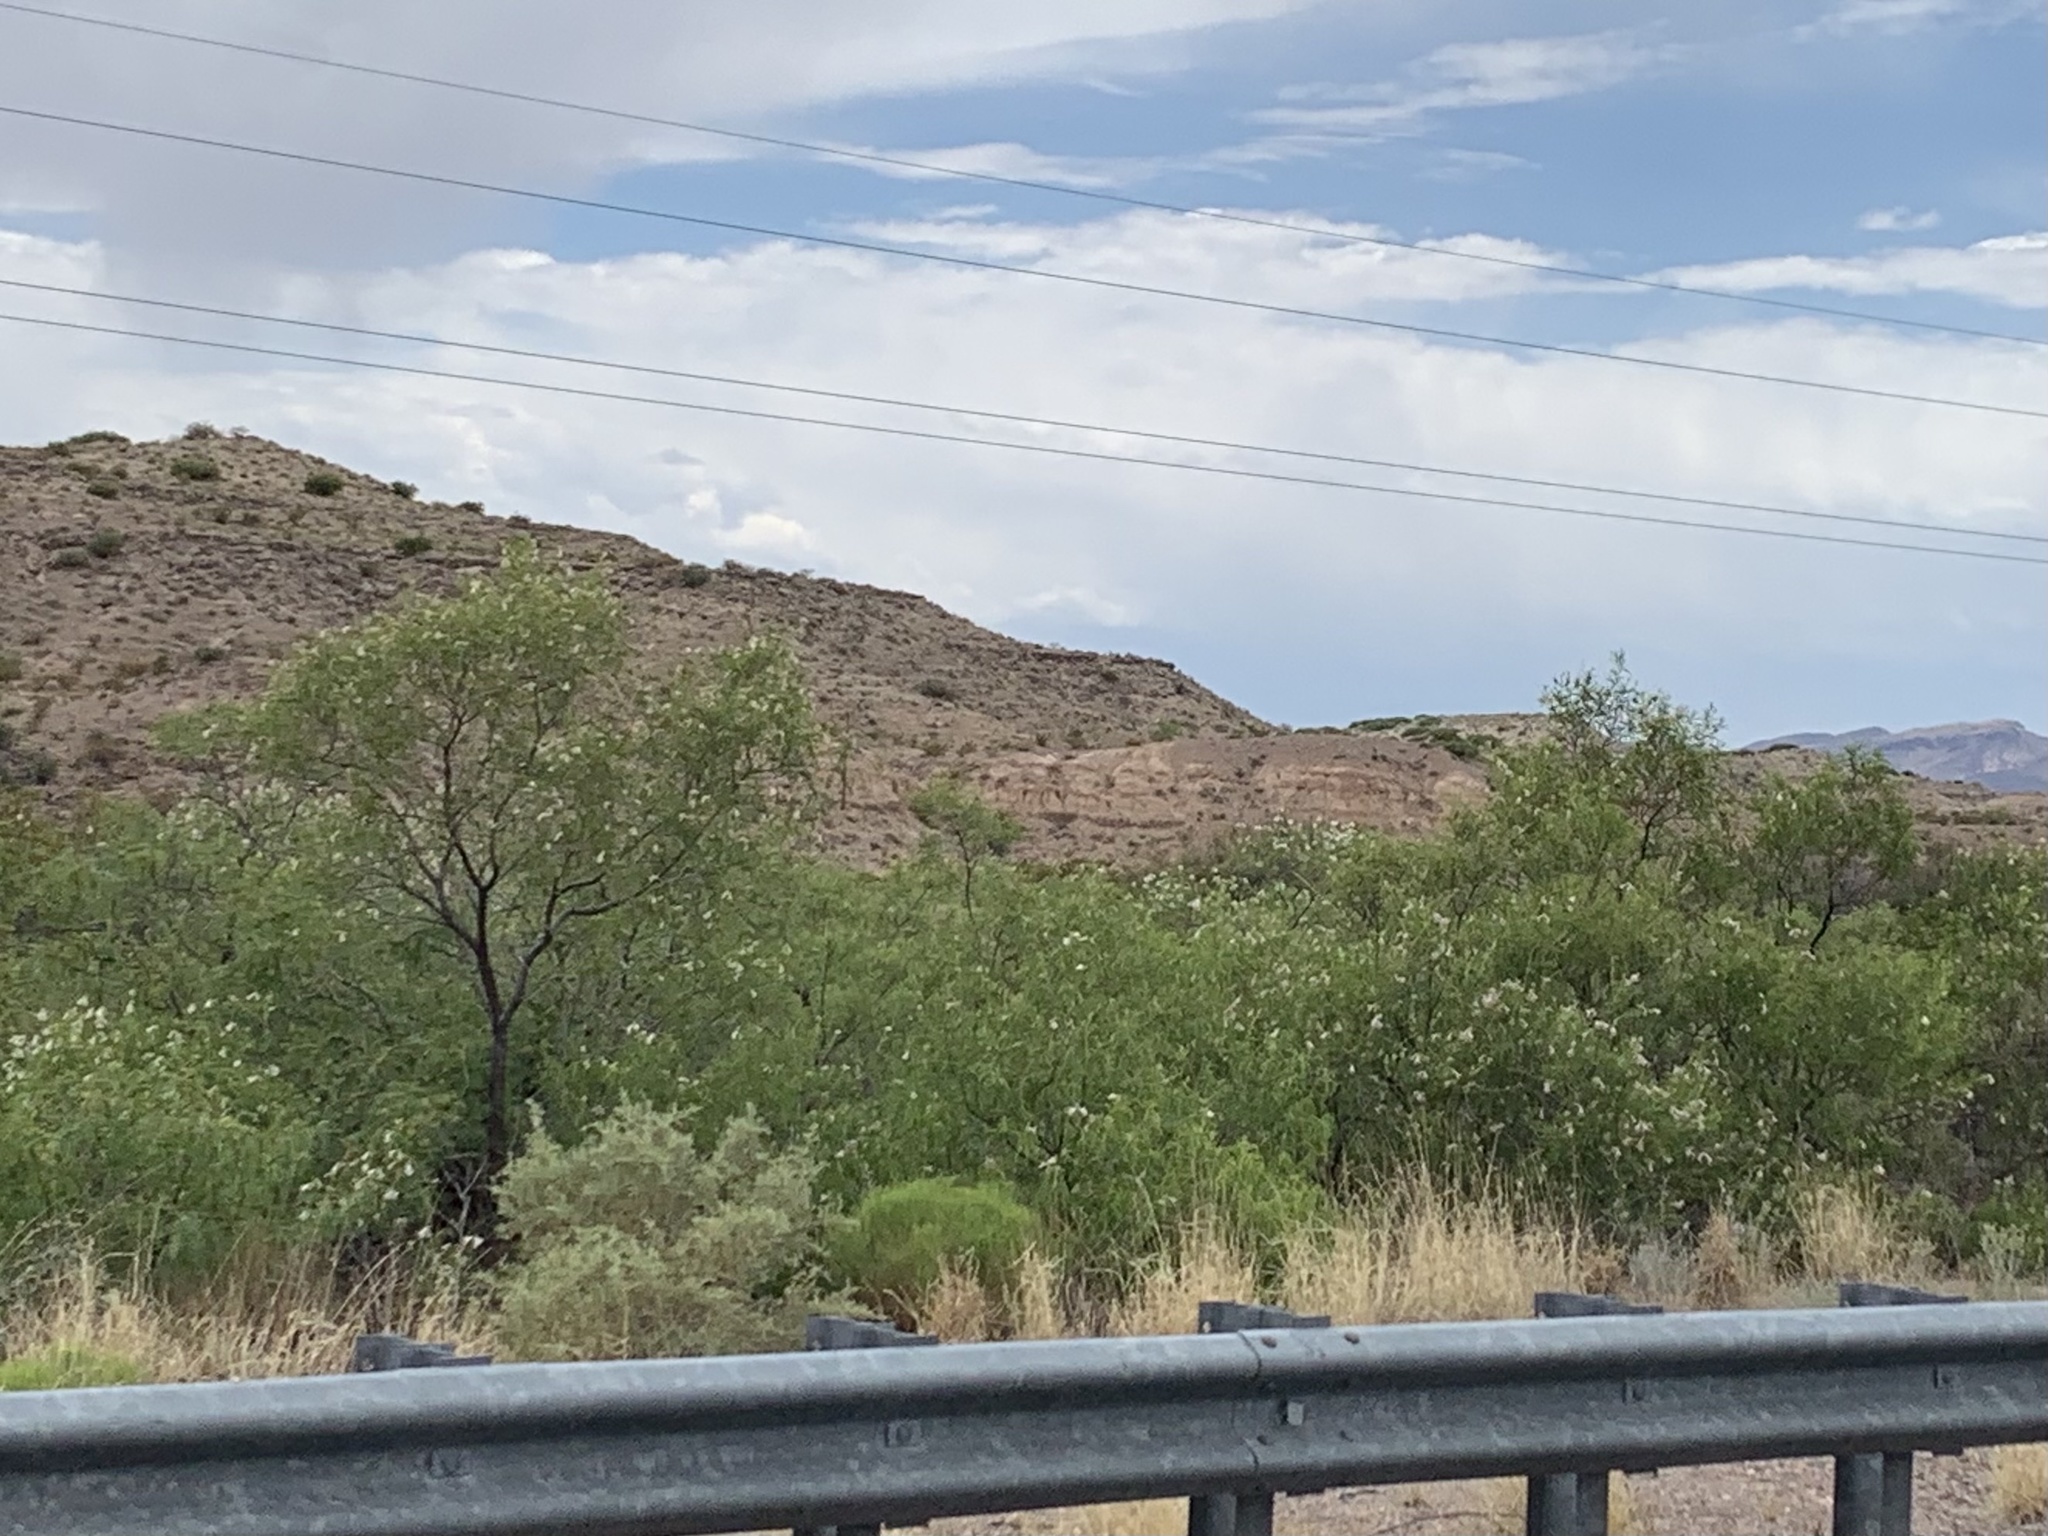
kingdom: Plantae
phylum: Tracheophyta
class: Magnoliopsida
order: Lamiales
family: Bignoniaceae
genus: Chilopsis
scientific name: Chilopsis linearis
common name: Desert-willow
